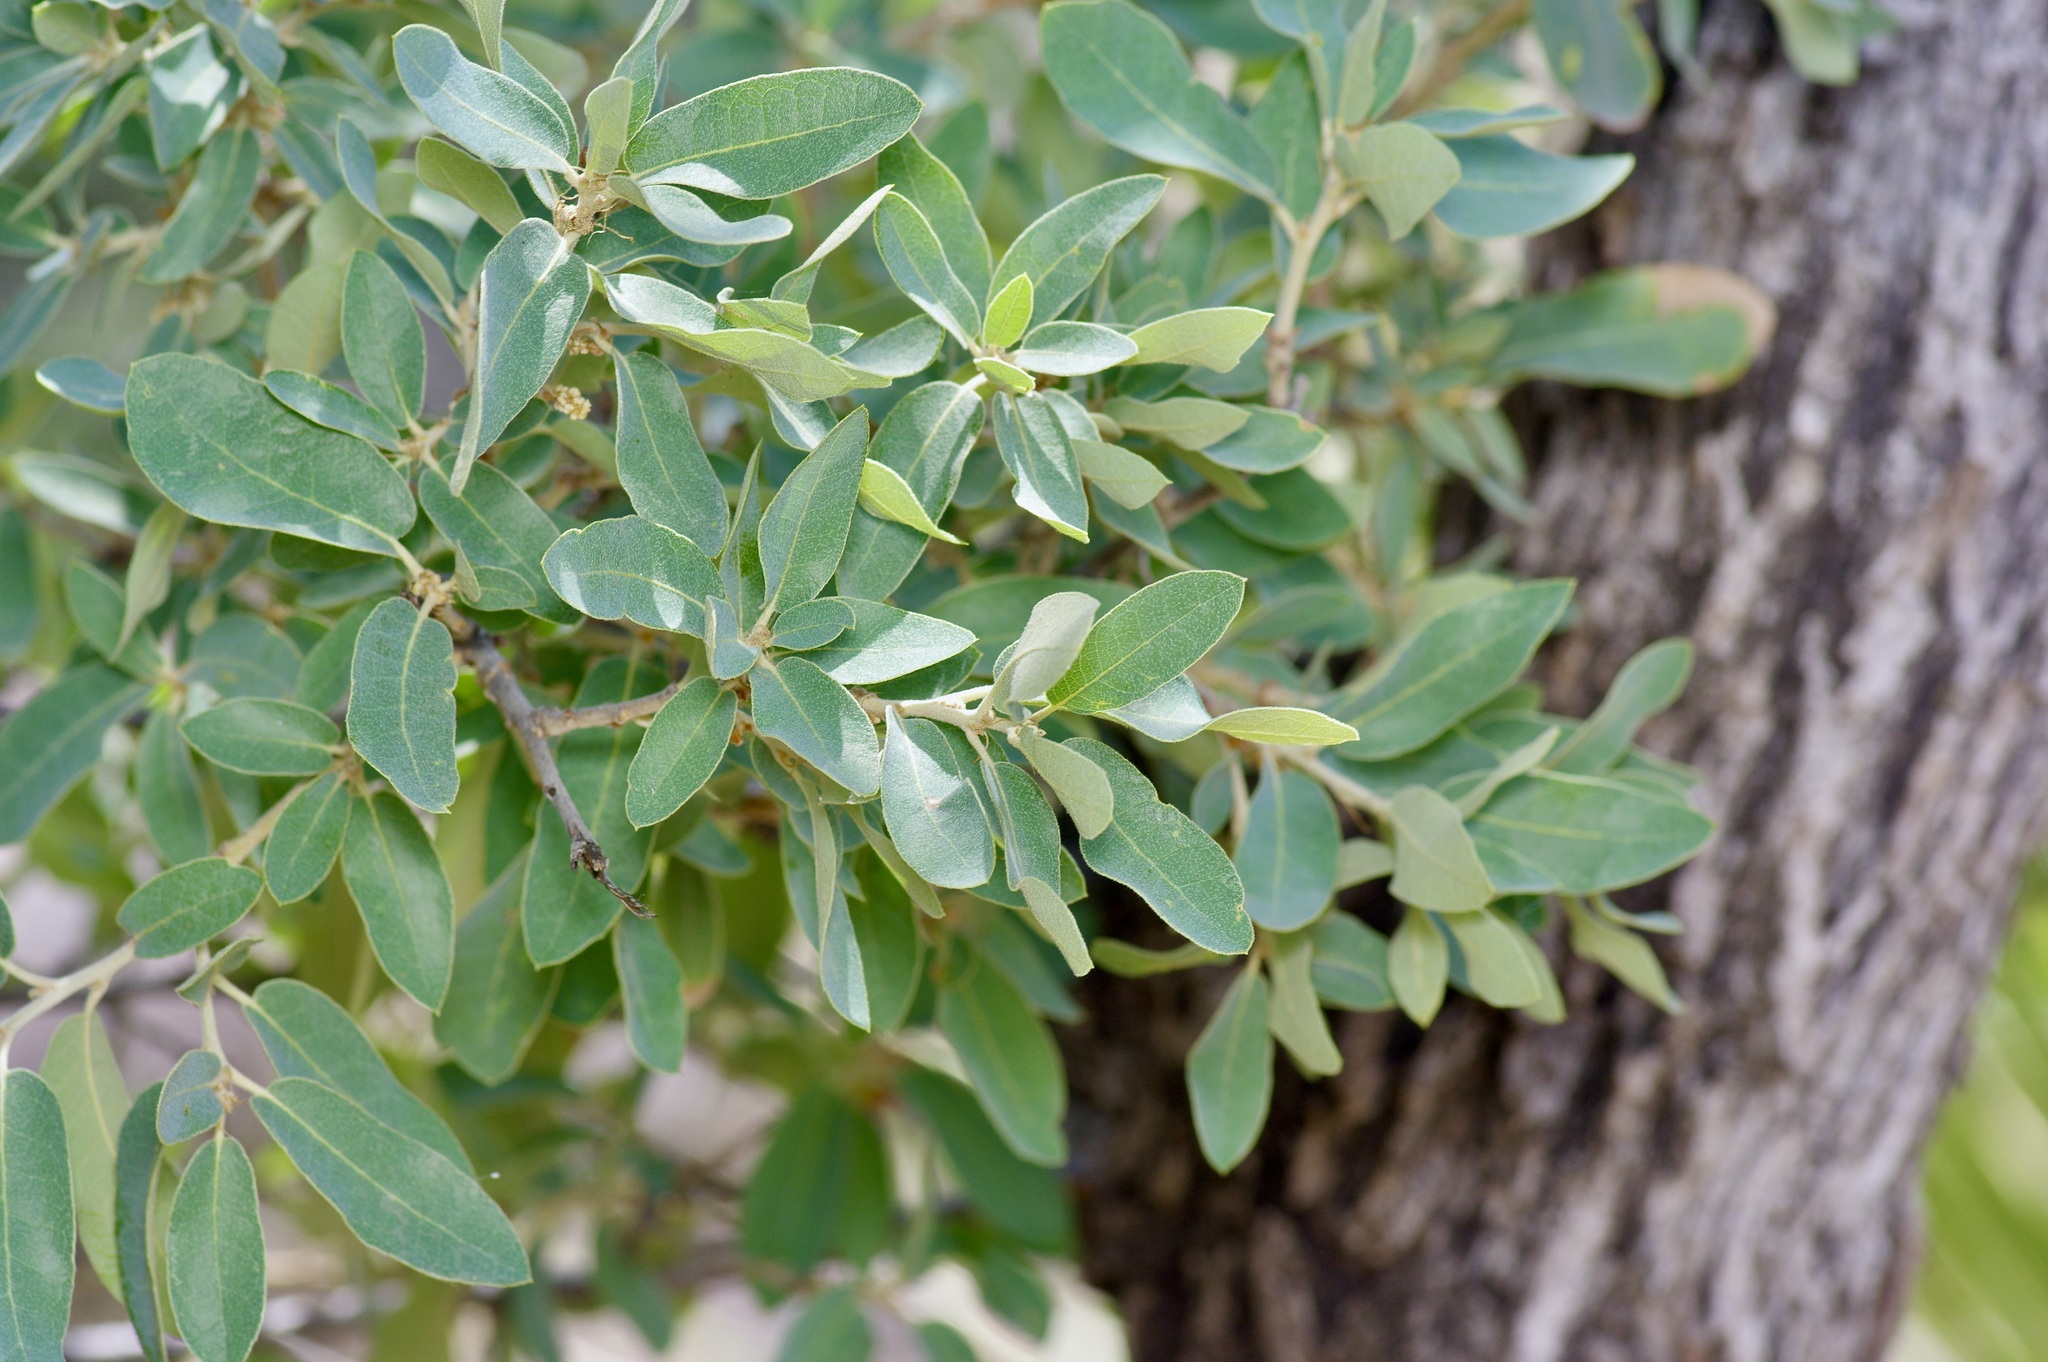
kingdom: Plantae
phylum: Tracheophyta
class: Magnoliopsida
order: Fagales
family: Fagaceae
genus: Quercus
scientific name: Quercus grisea
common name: Gray oak
